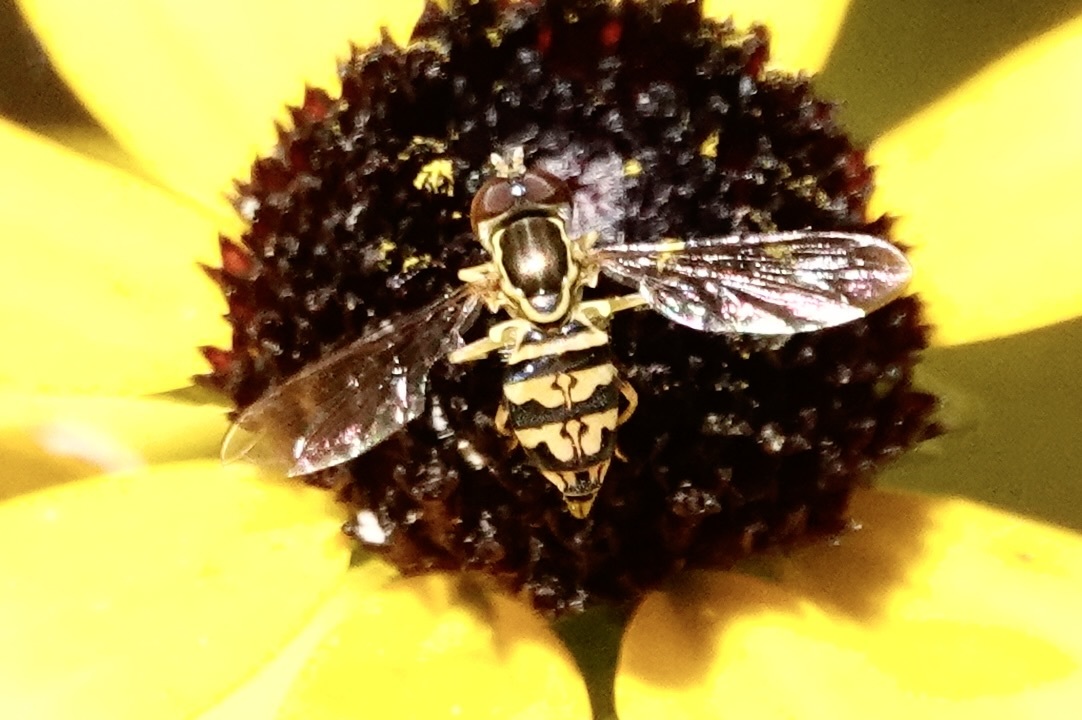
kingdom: Animalia
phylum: Arthropoda
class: Insecta
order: Diptera
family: Syrphidae
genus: Toxomerus
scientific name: Toxomerus geminatus
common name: Eastern calligrapher
